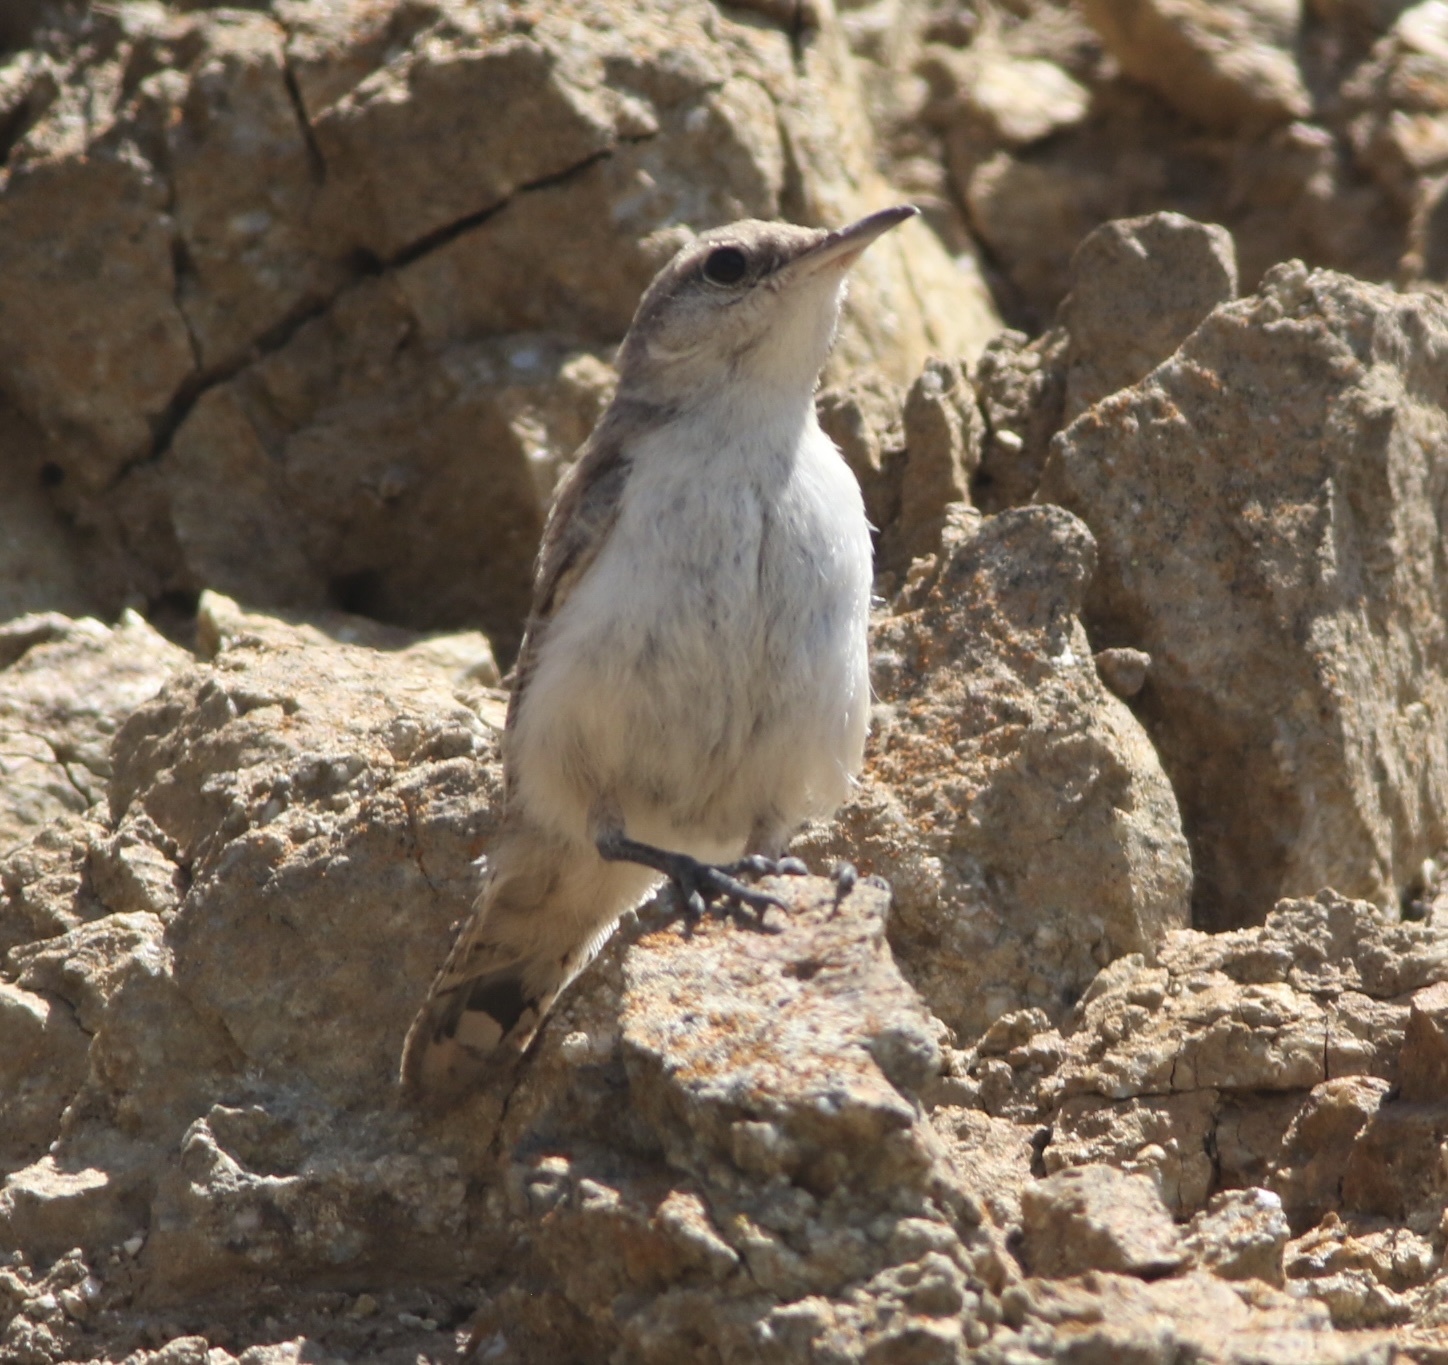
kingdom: Animalia
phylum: Chordata
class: Aves
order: Passeriformes
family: Troglodytidae
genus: Salpinctes
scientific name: Salpinctes obsoletus
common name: Rock wren
